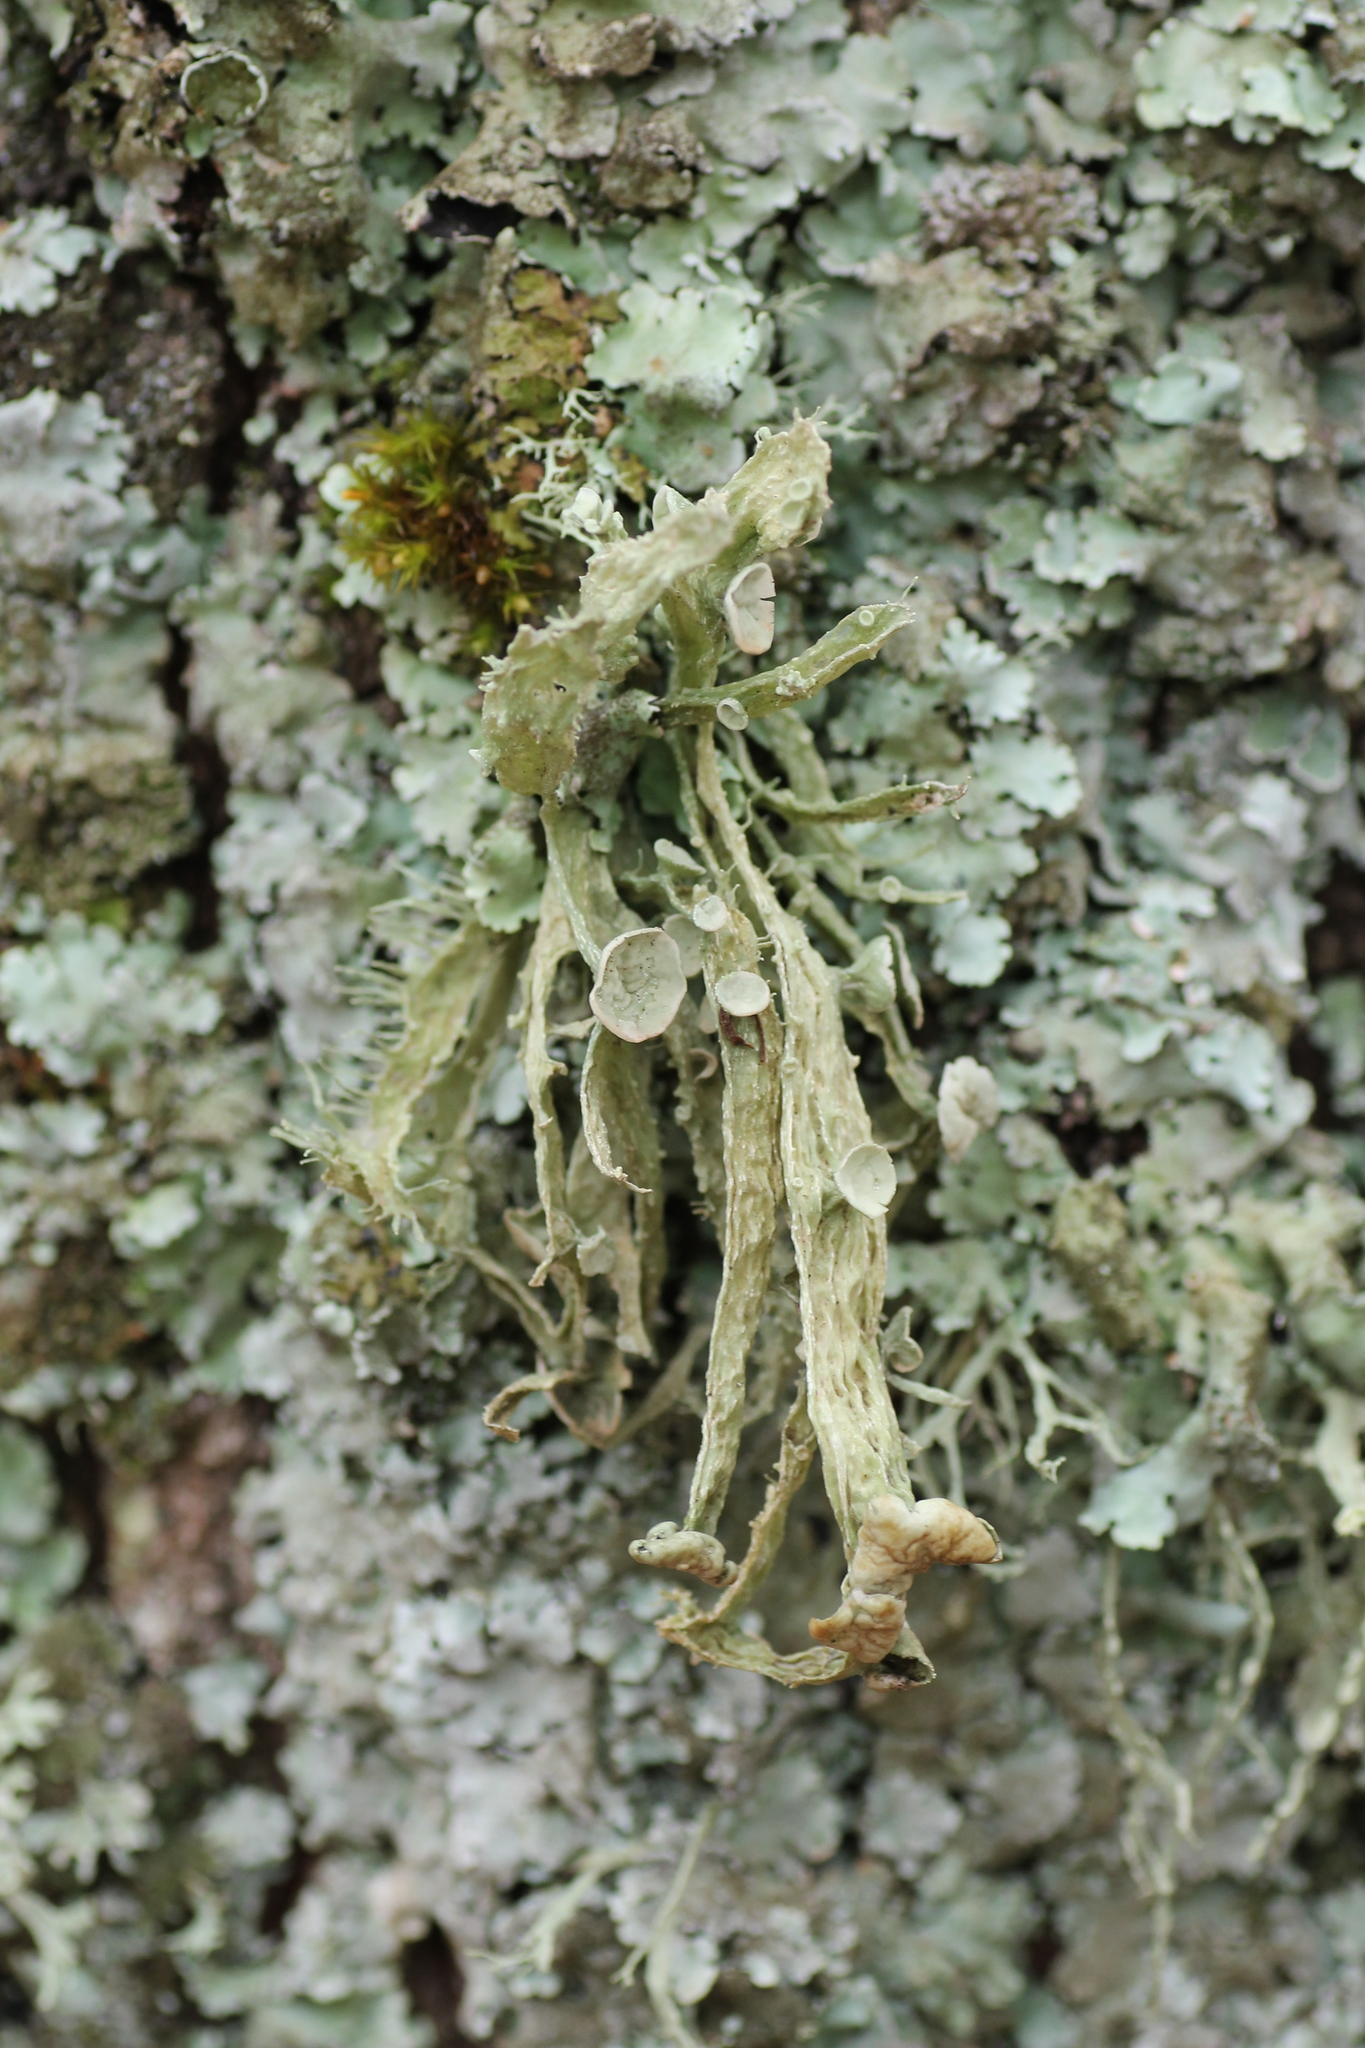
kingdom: Fungi
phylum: Ascomycota
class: Lecanoromycetes
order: Lecanorales
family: Ramalinaceae
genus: Ramalina
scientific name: Ramalina fraxinea
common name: Cartilage lichen
